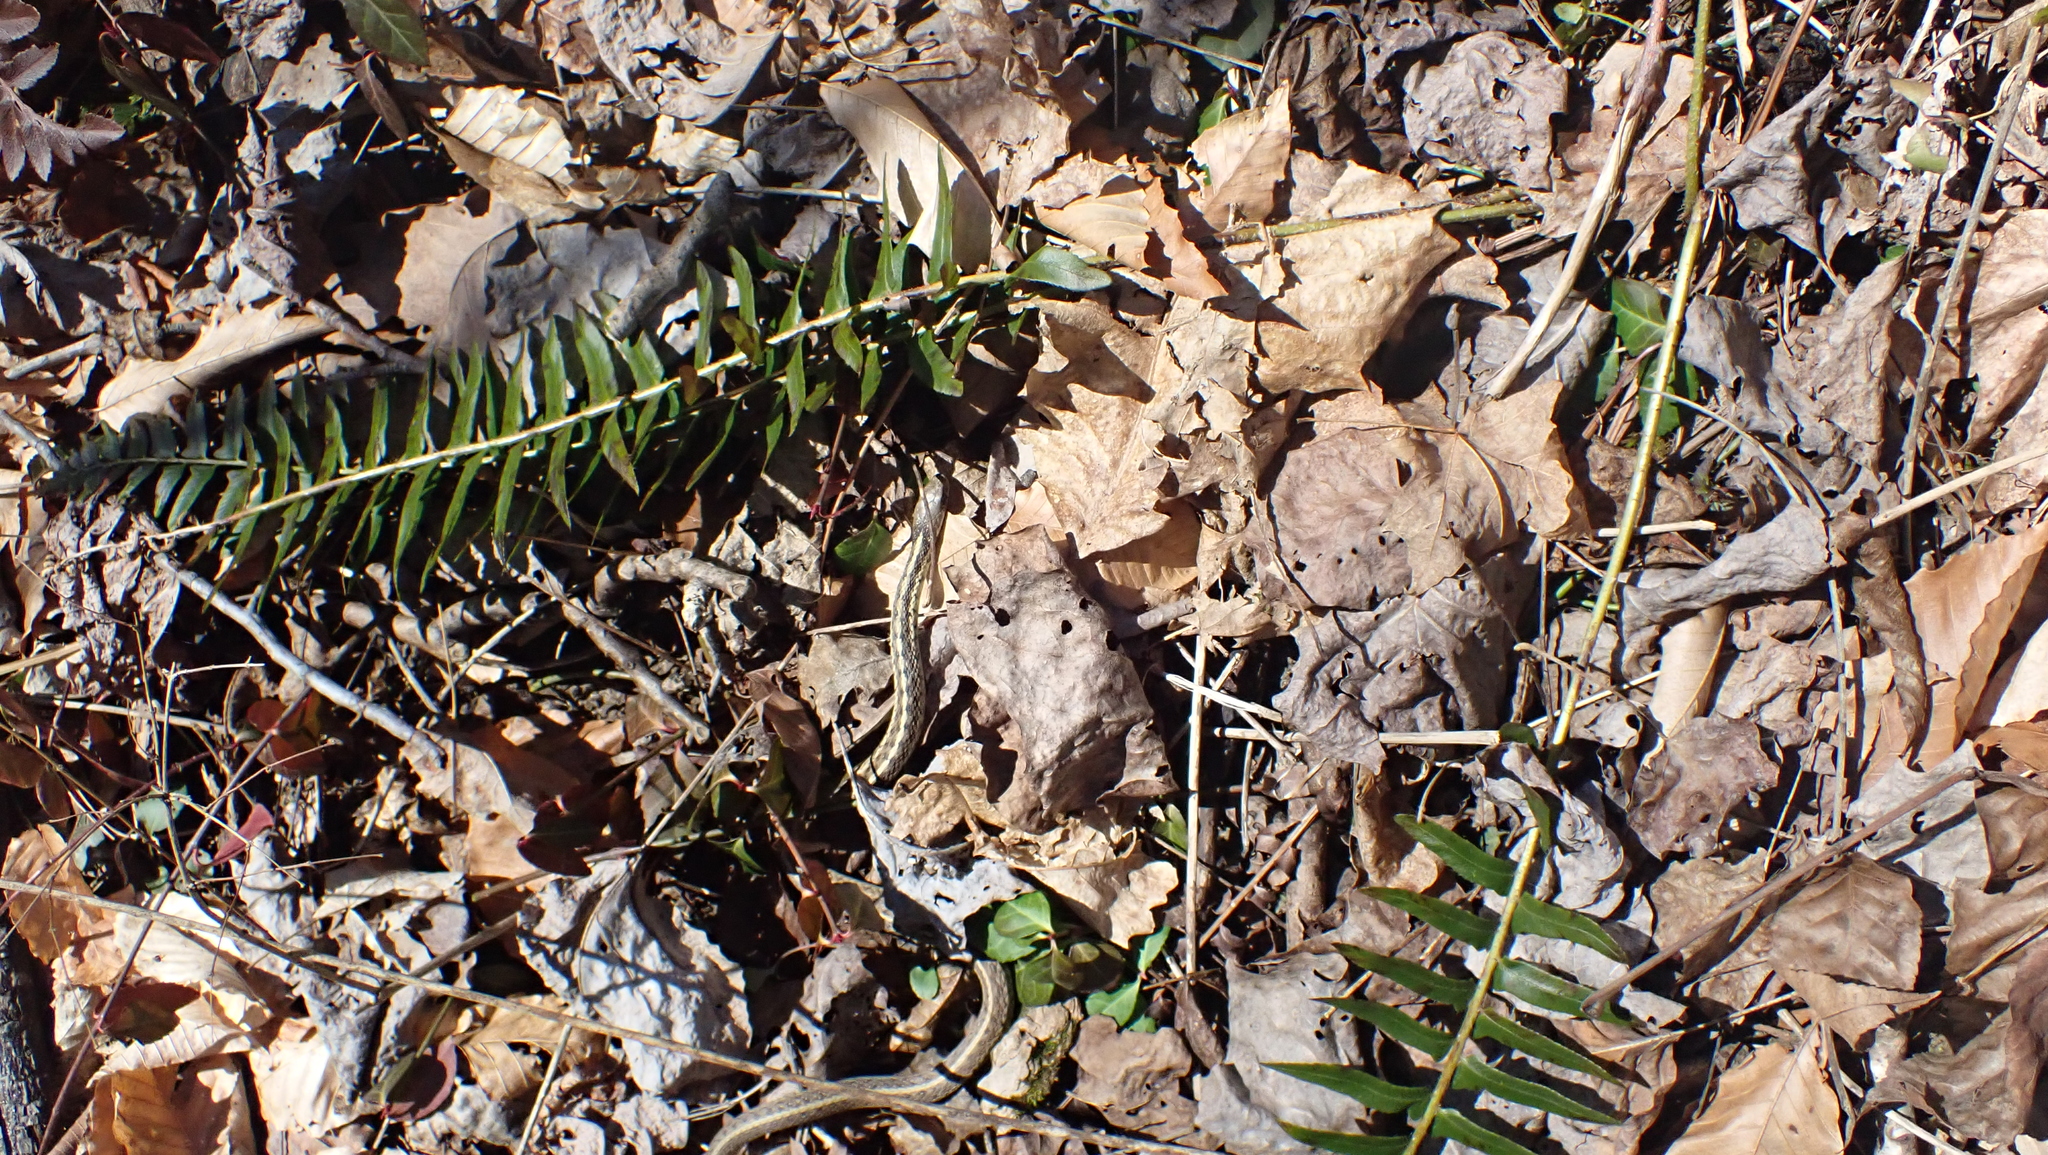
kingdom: Animalia
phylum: Chordata
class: Squamata
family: Colubridae
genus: Thamnophis
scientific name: Thamnophis sirtalis
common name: Common garter snake
